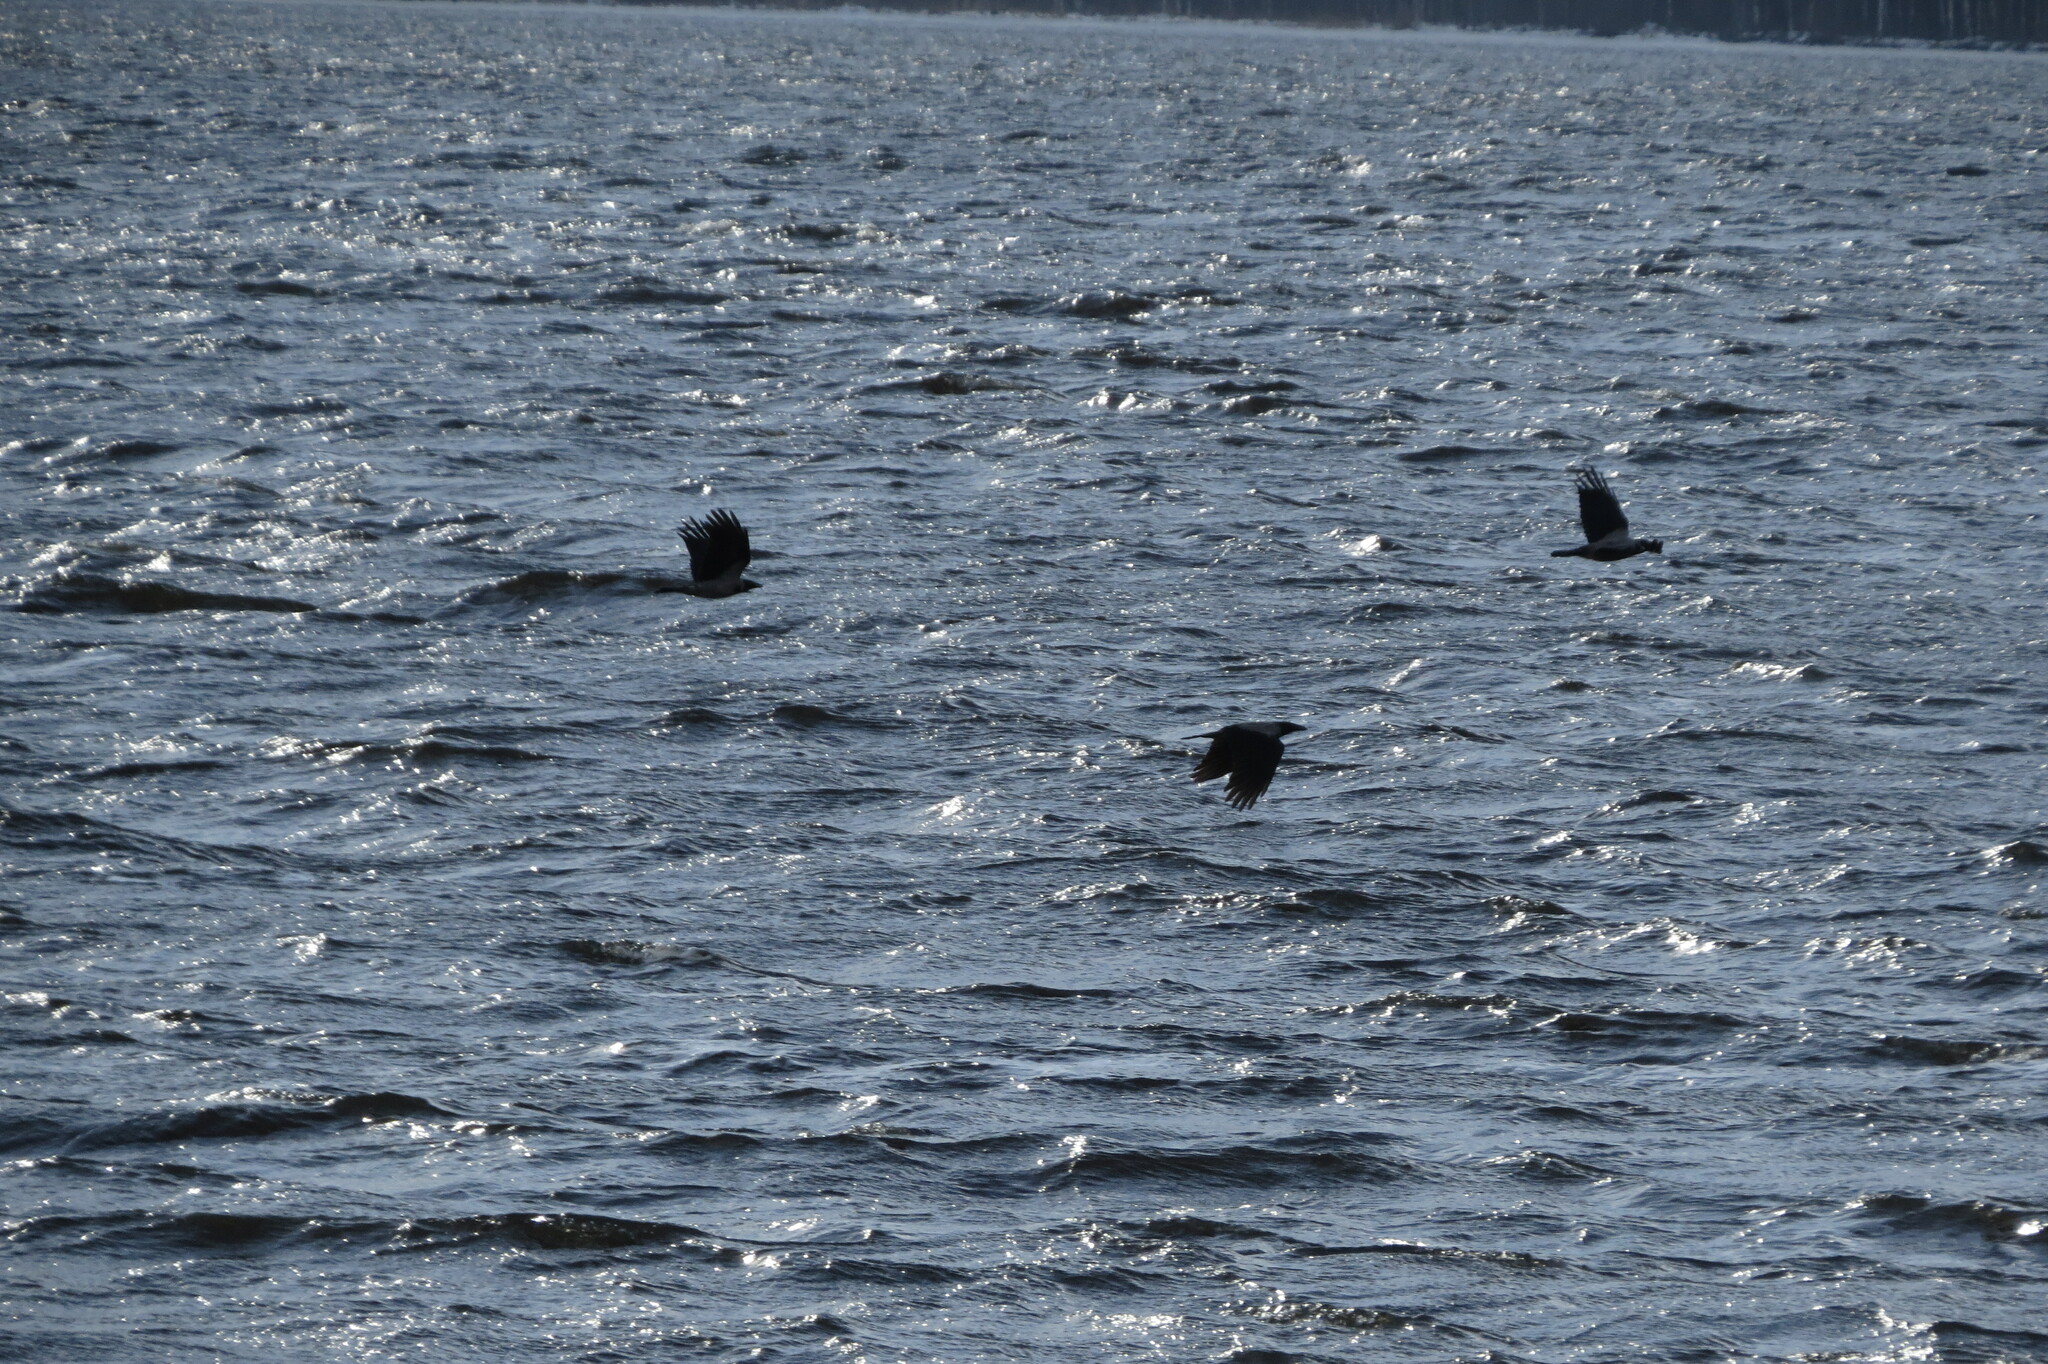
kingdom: Animalia
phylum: Chordata
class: Aves
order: Passeriformes
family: Corvidae
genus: Corvus
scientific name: Corvus cornix
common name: Hooded crow
